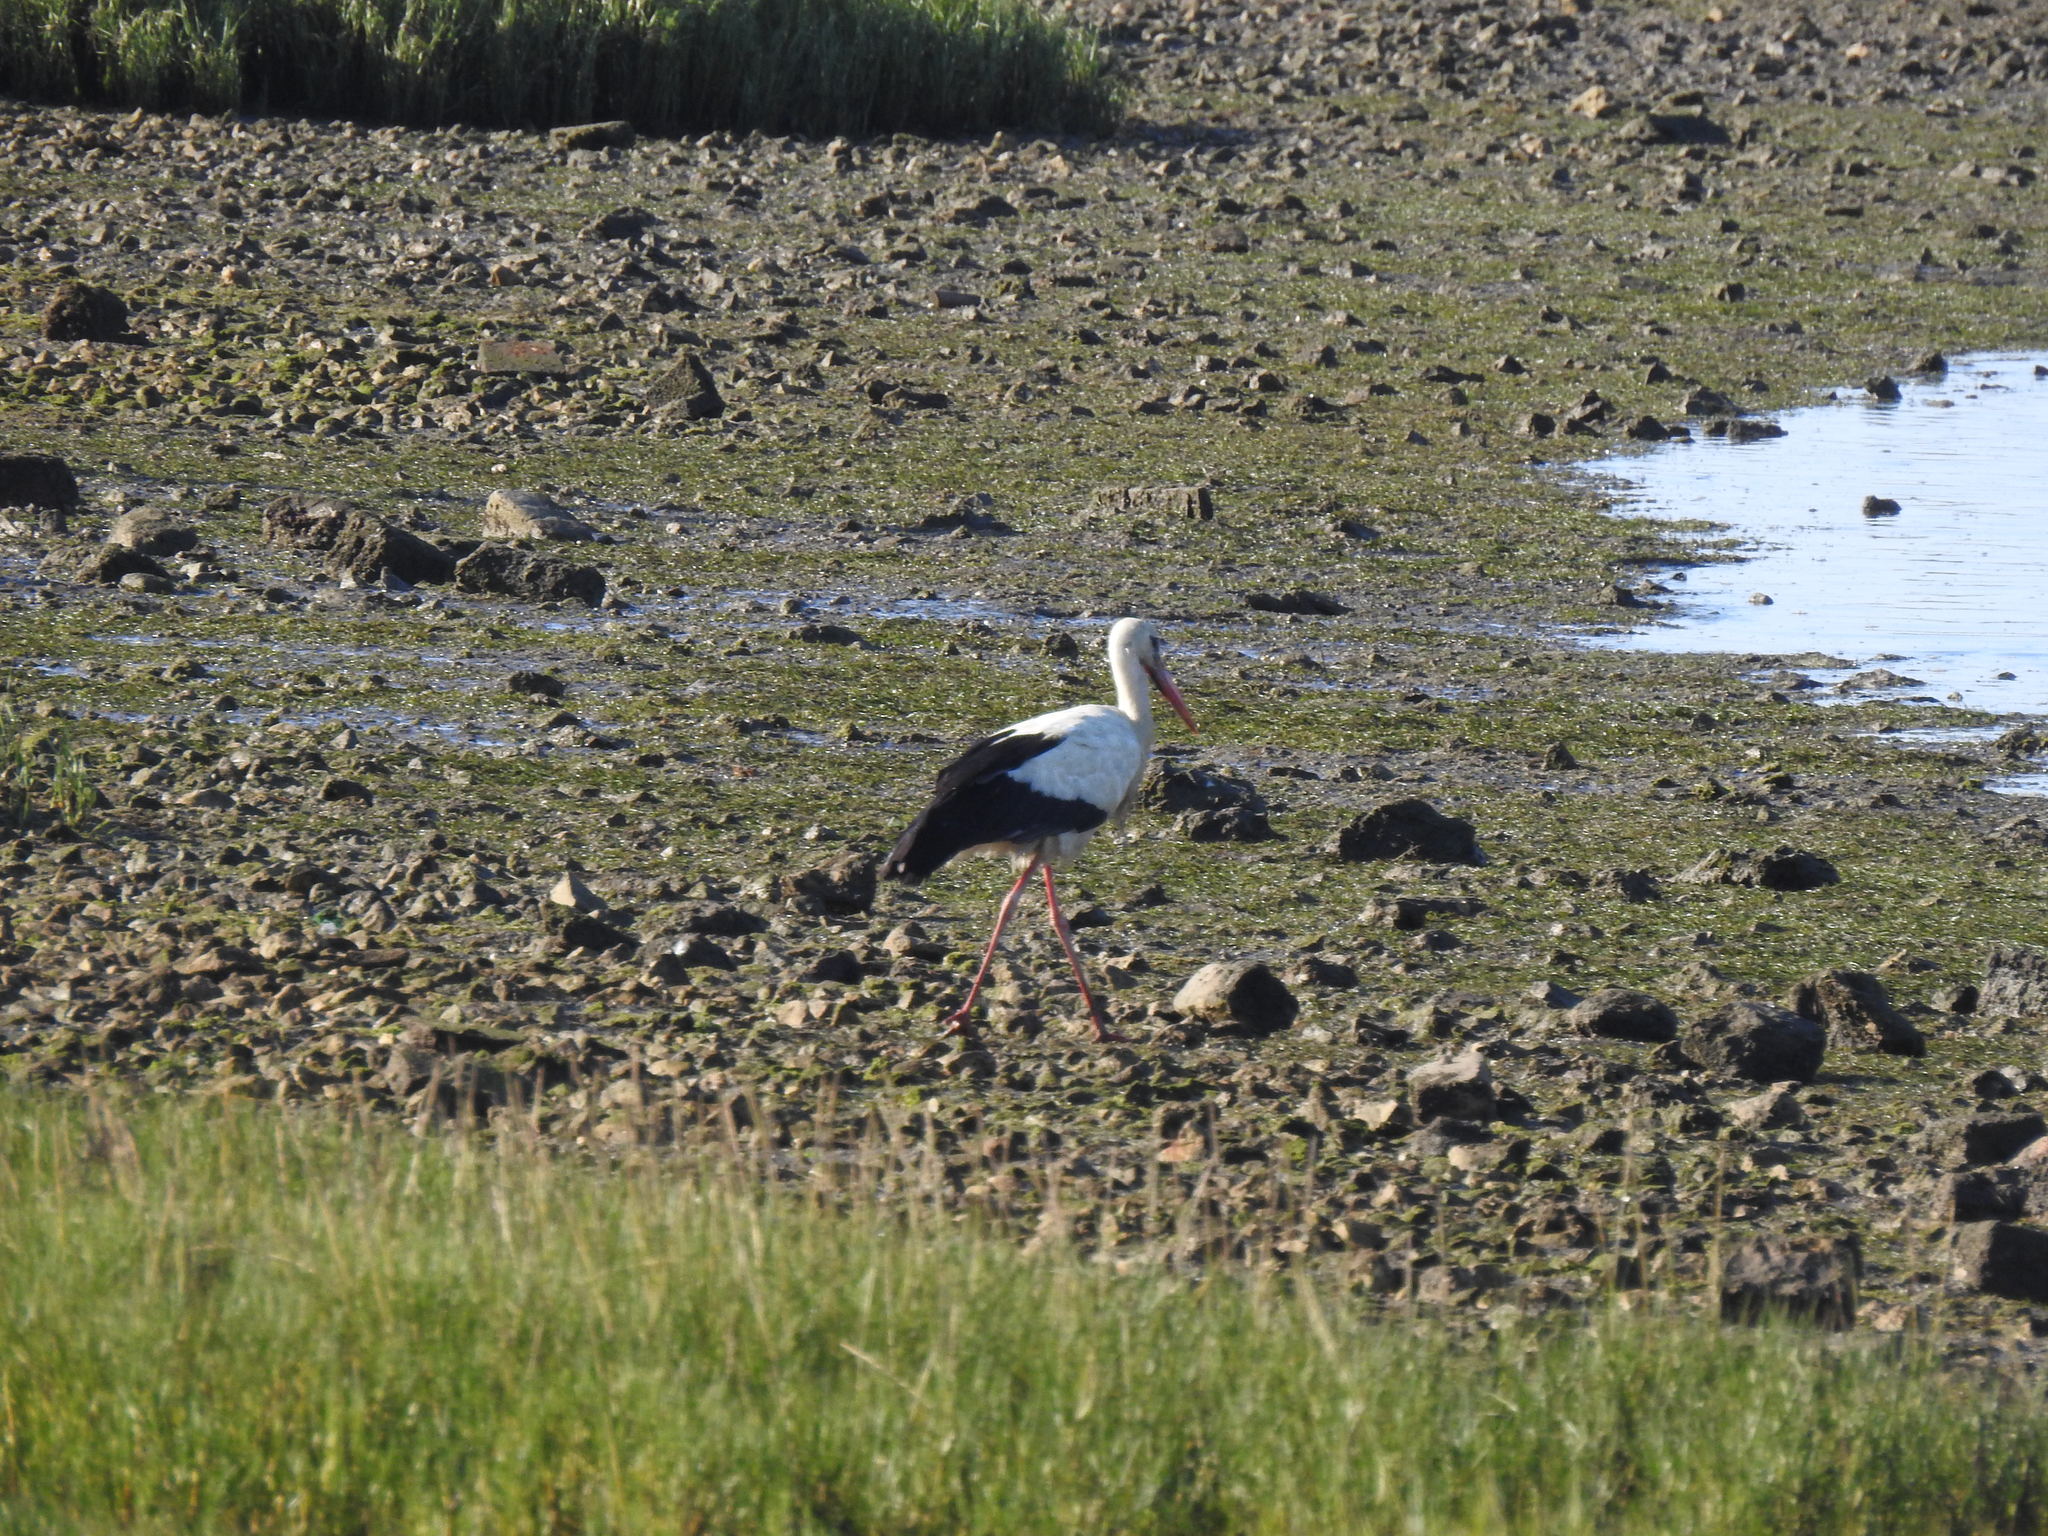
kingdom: Animalia
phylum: Chordata
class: Aves
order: Ciconiiformes
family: Ciconiidae
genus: Ciconia
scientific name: Ciconia ciconia
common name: White stork
